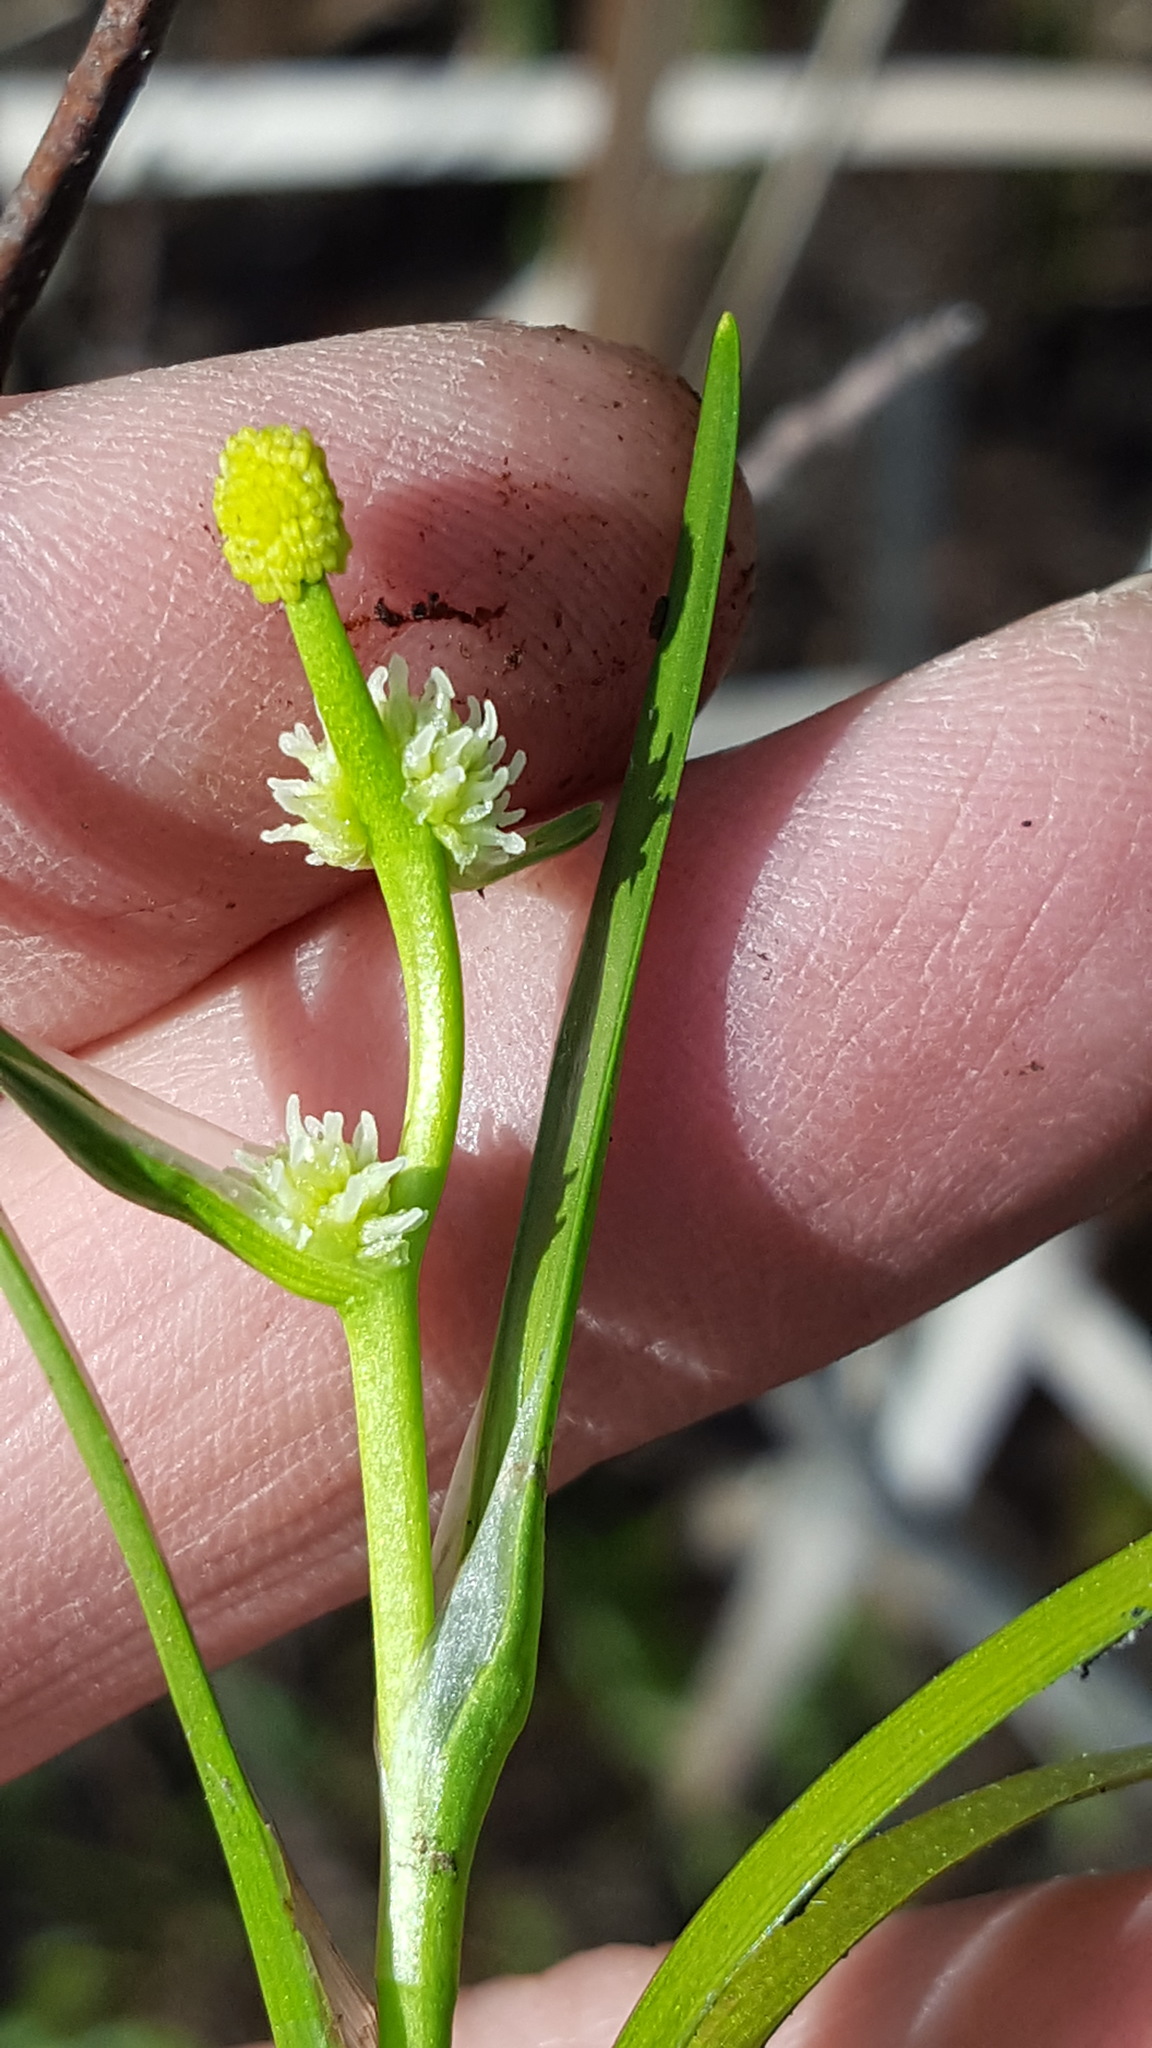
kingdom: Plantae
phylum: Tracheophyta
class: Liliopsida
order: Poales
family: Typhaceae
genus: Sparganium
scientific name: Sparganium natans
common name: Least bur-reed
